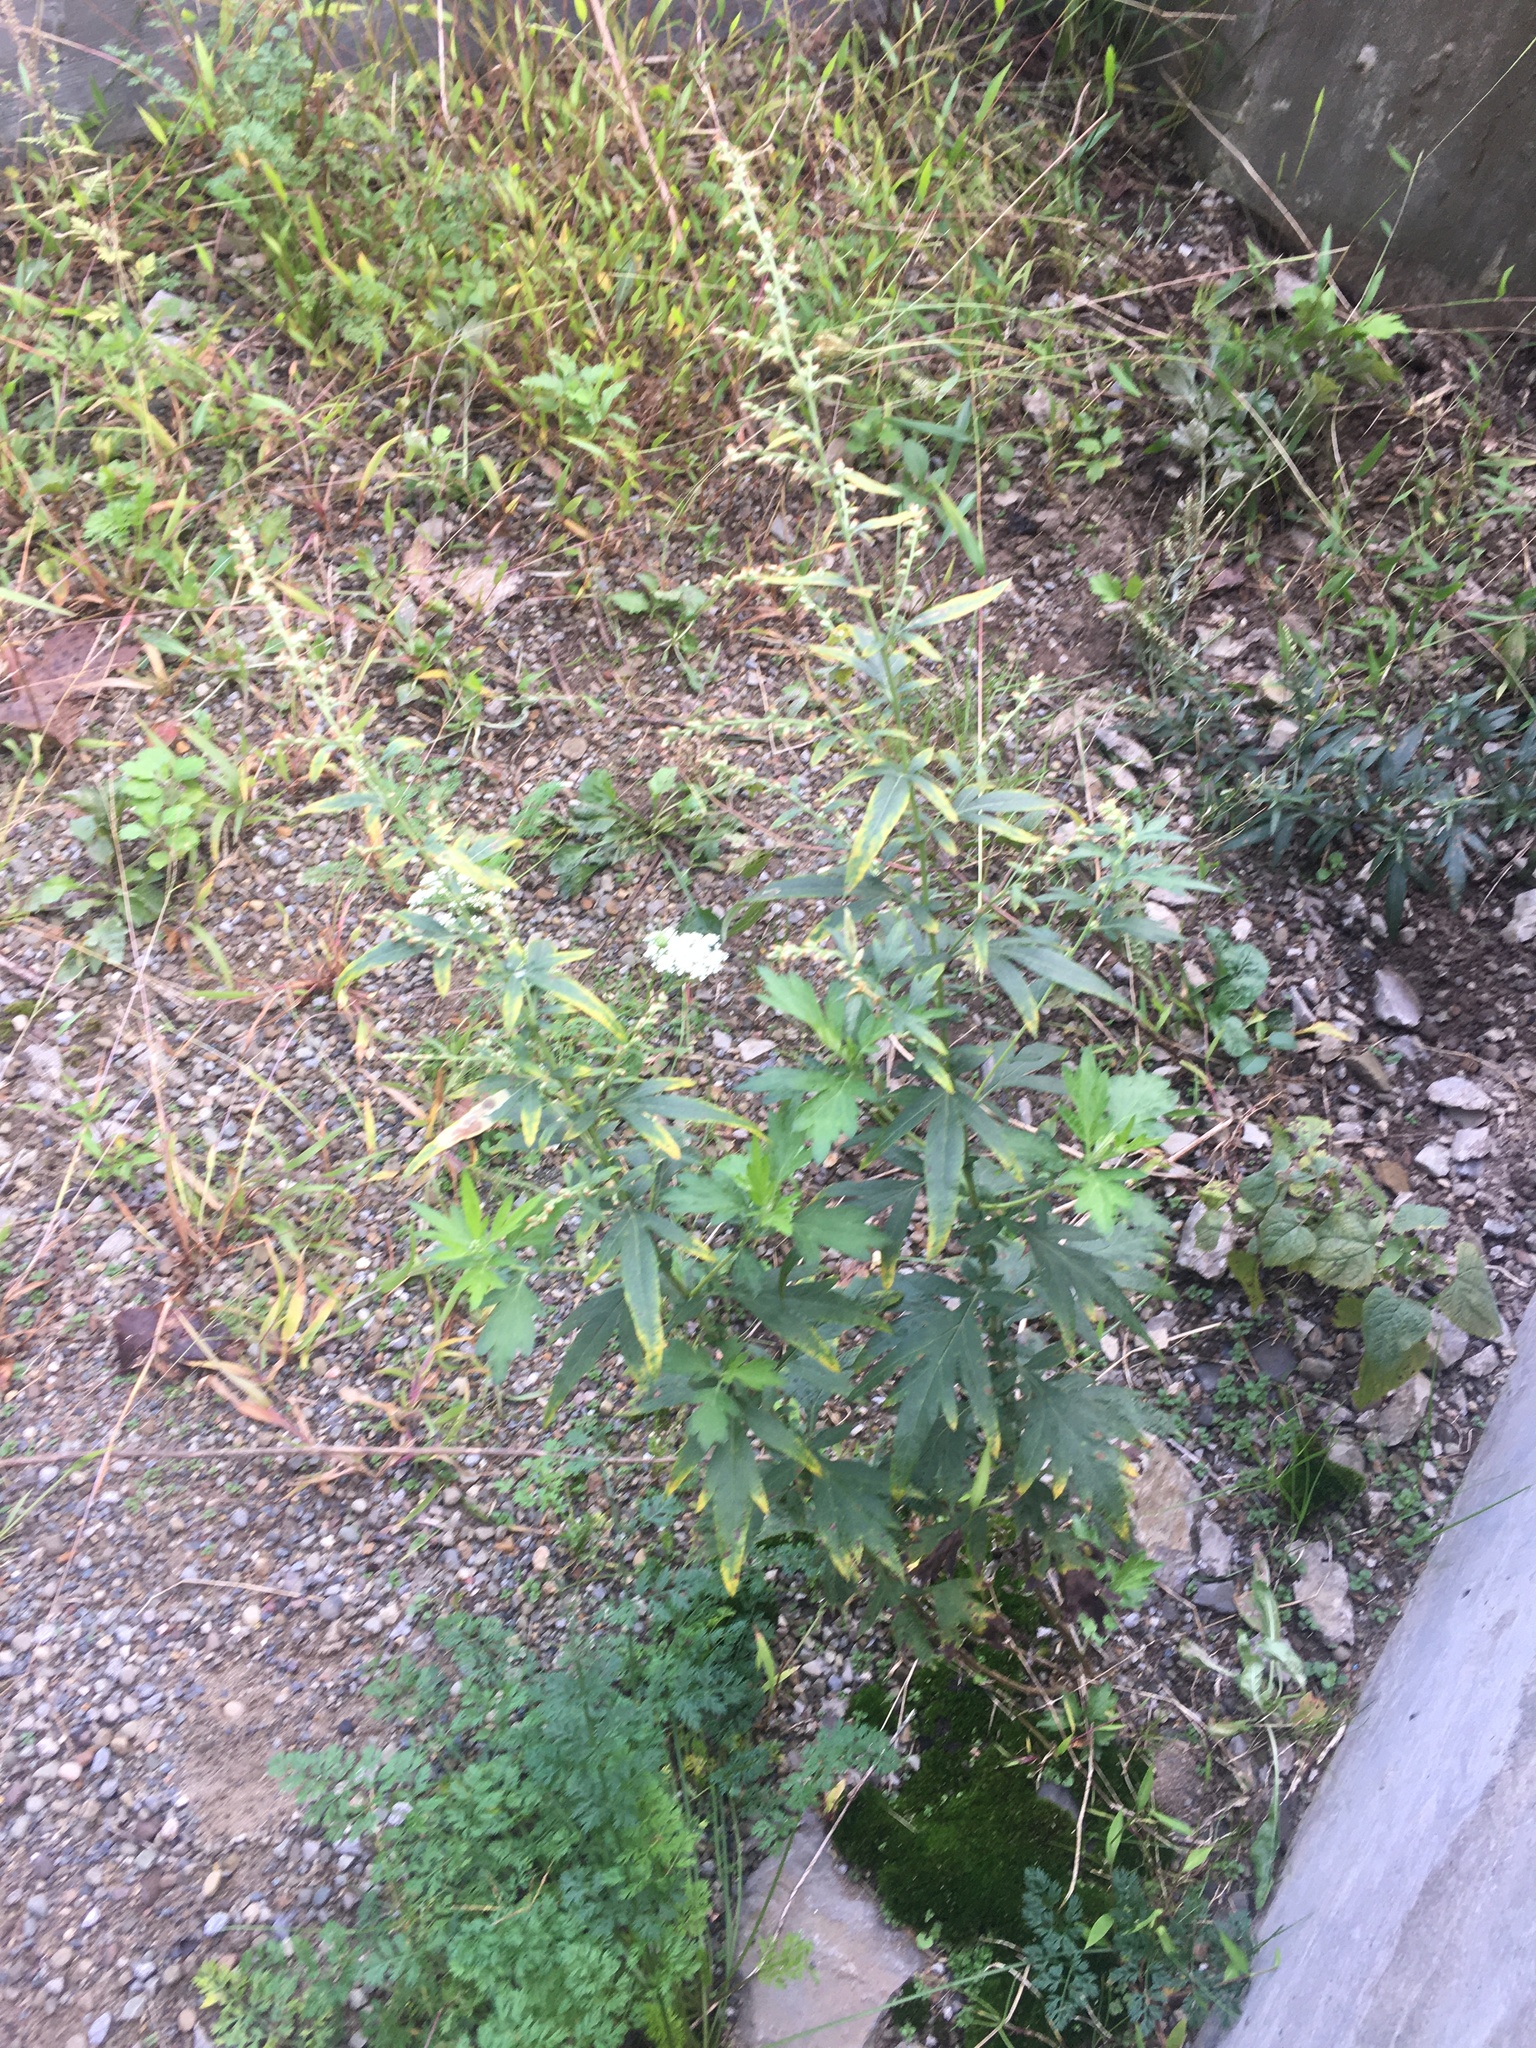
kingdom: Plantae
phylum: Tracheophyta
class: Magnoliopsida
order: Asterales
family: Asteraceae
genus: Artemisia
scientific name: Artemisia vulgaris
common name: Mugwort
